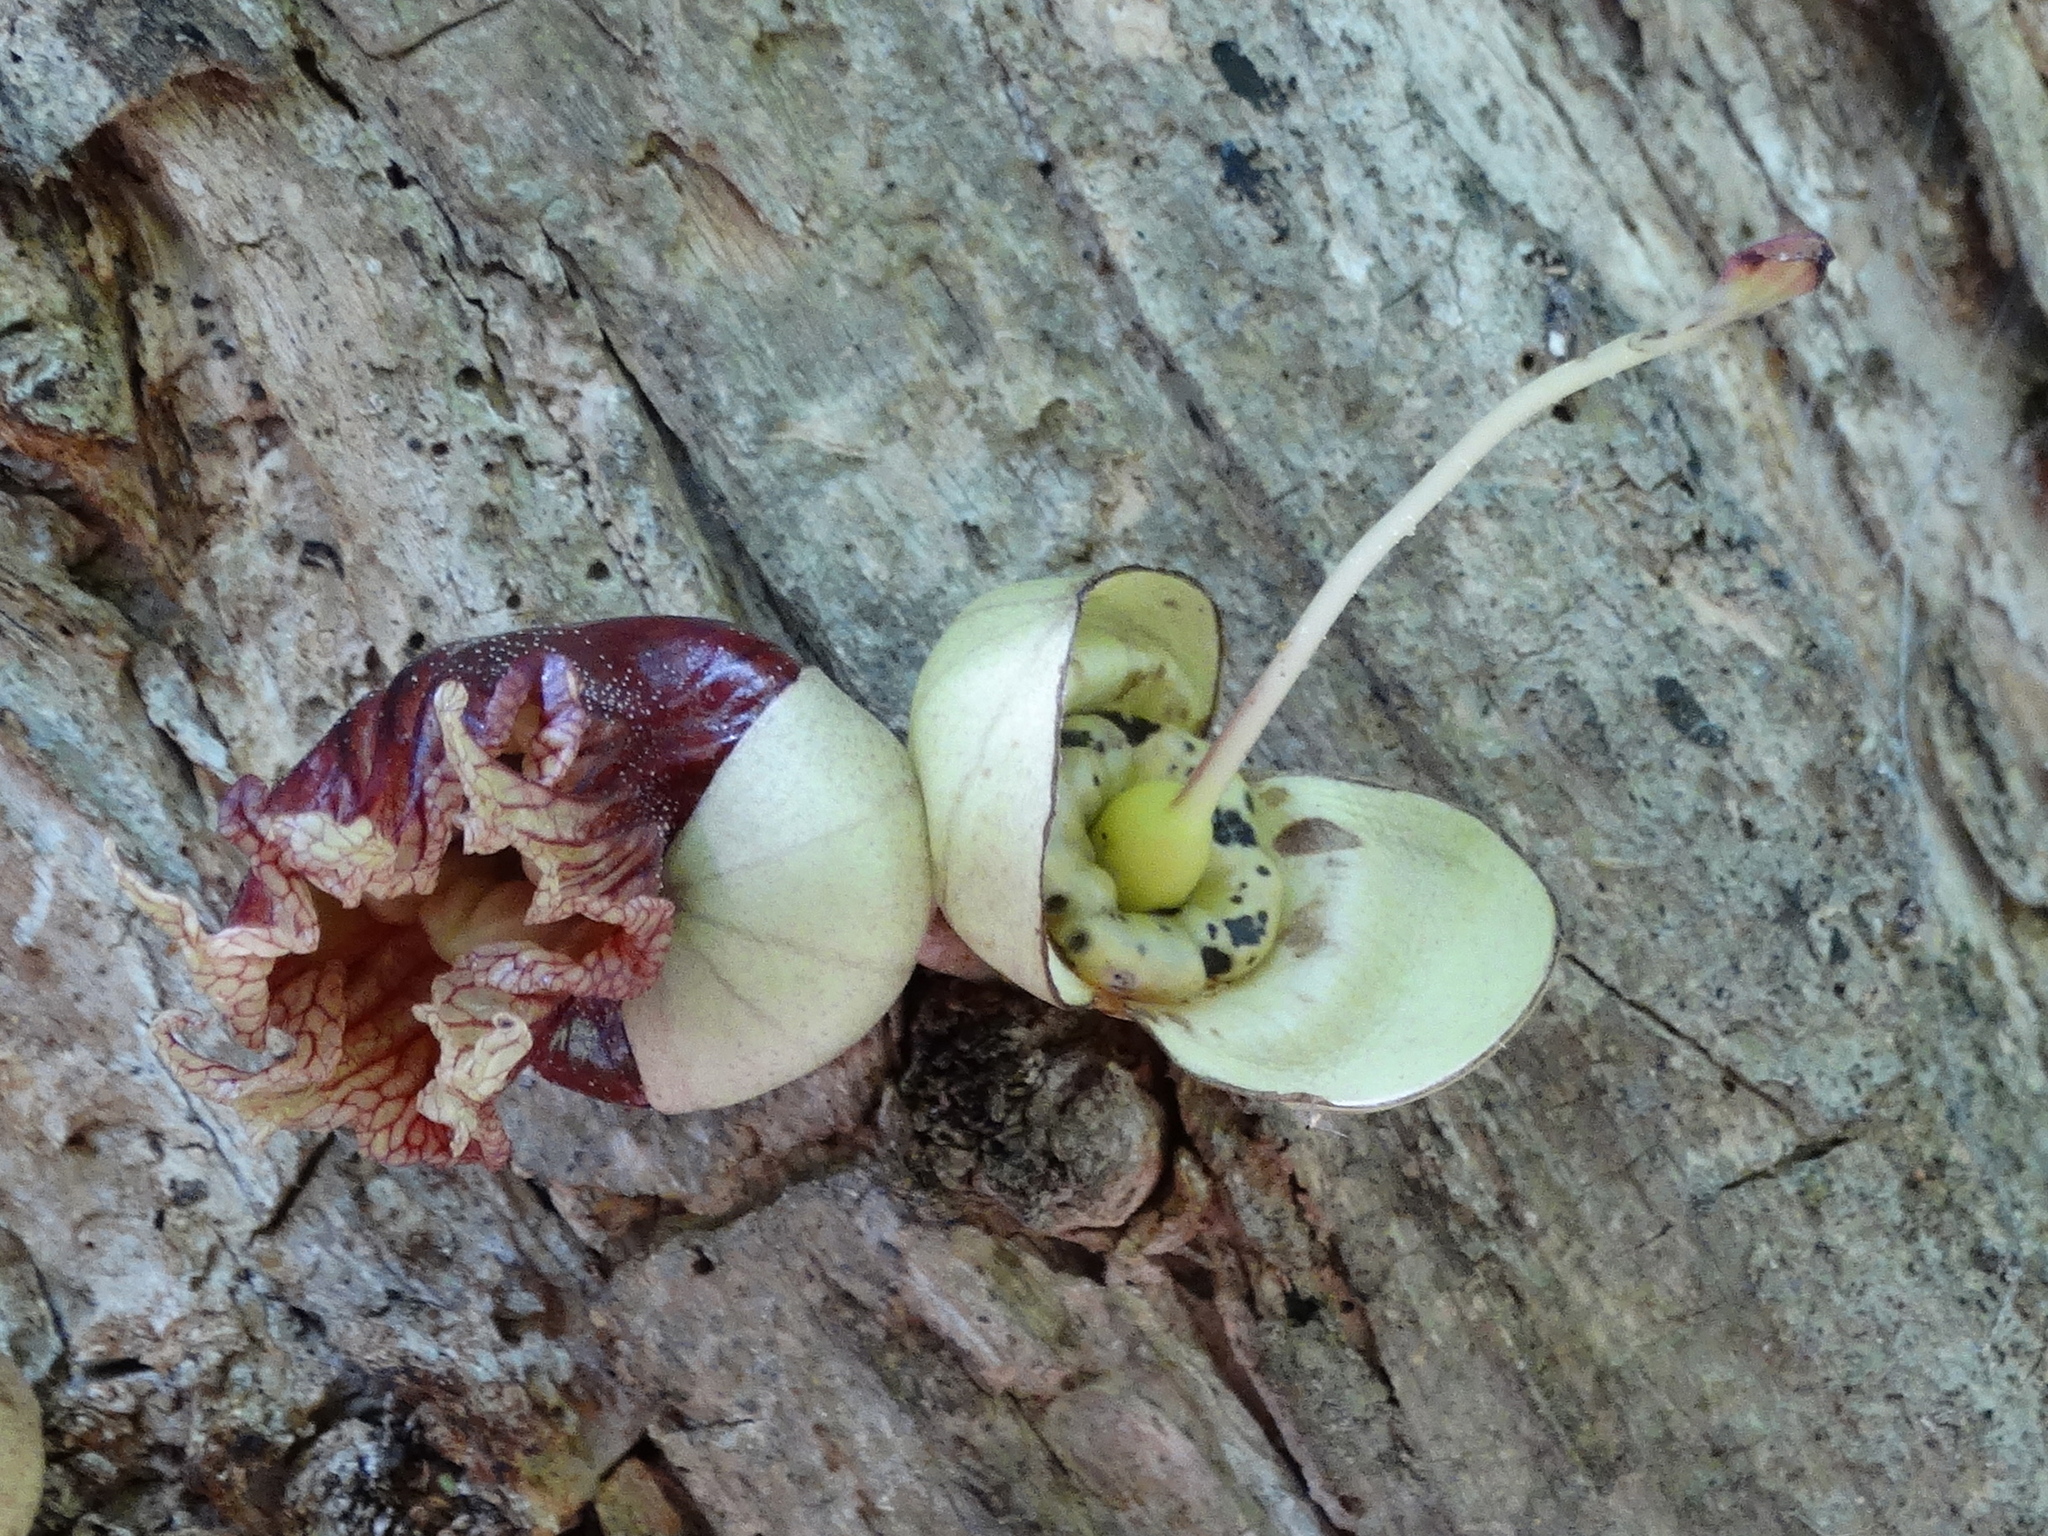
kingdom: Plantae
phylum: Tracheophyta
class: Magnoliopsida
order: Lamiales
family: Bignoniaceae
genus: Crescentia
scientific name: Crescentia alata
